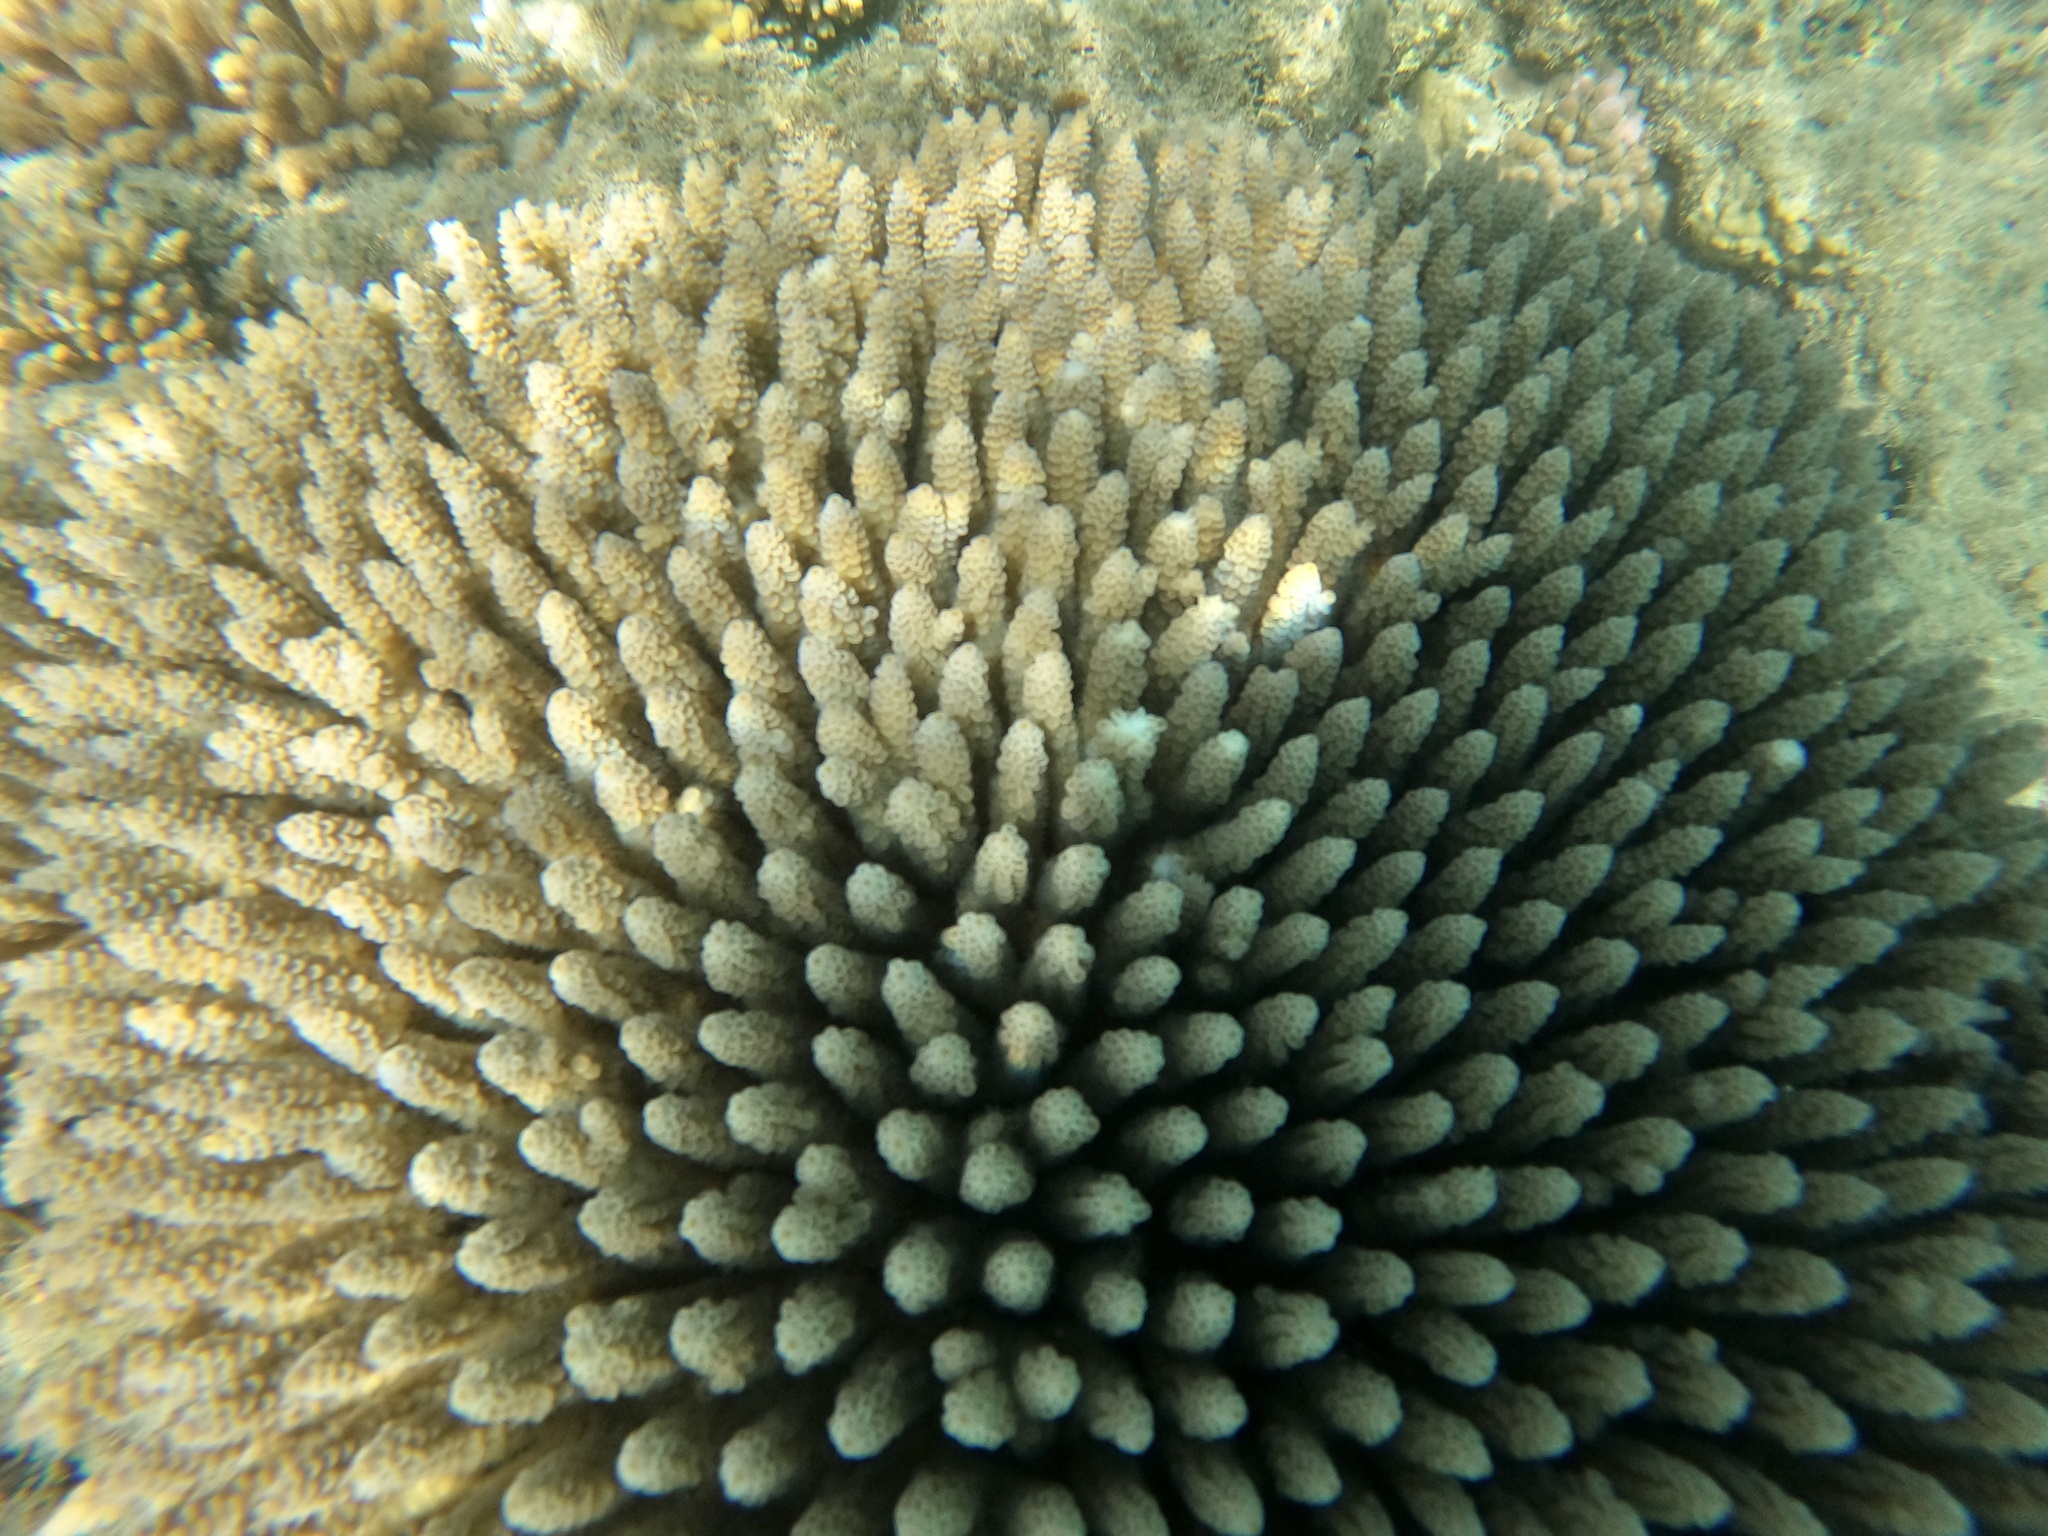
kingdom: Animalia
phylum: Cnidaria
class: Anthozoa
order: Scleractinia
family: Acroporidae
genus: Acropora
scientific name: Acropora tenuis
